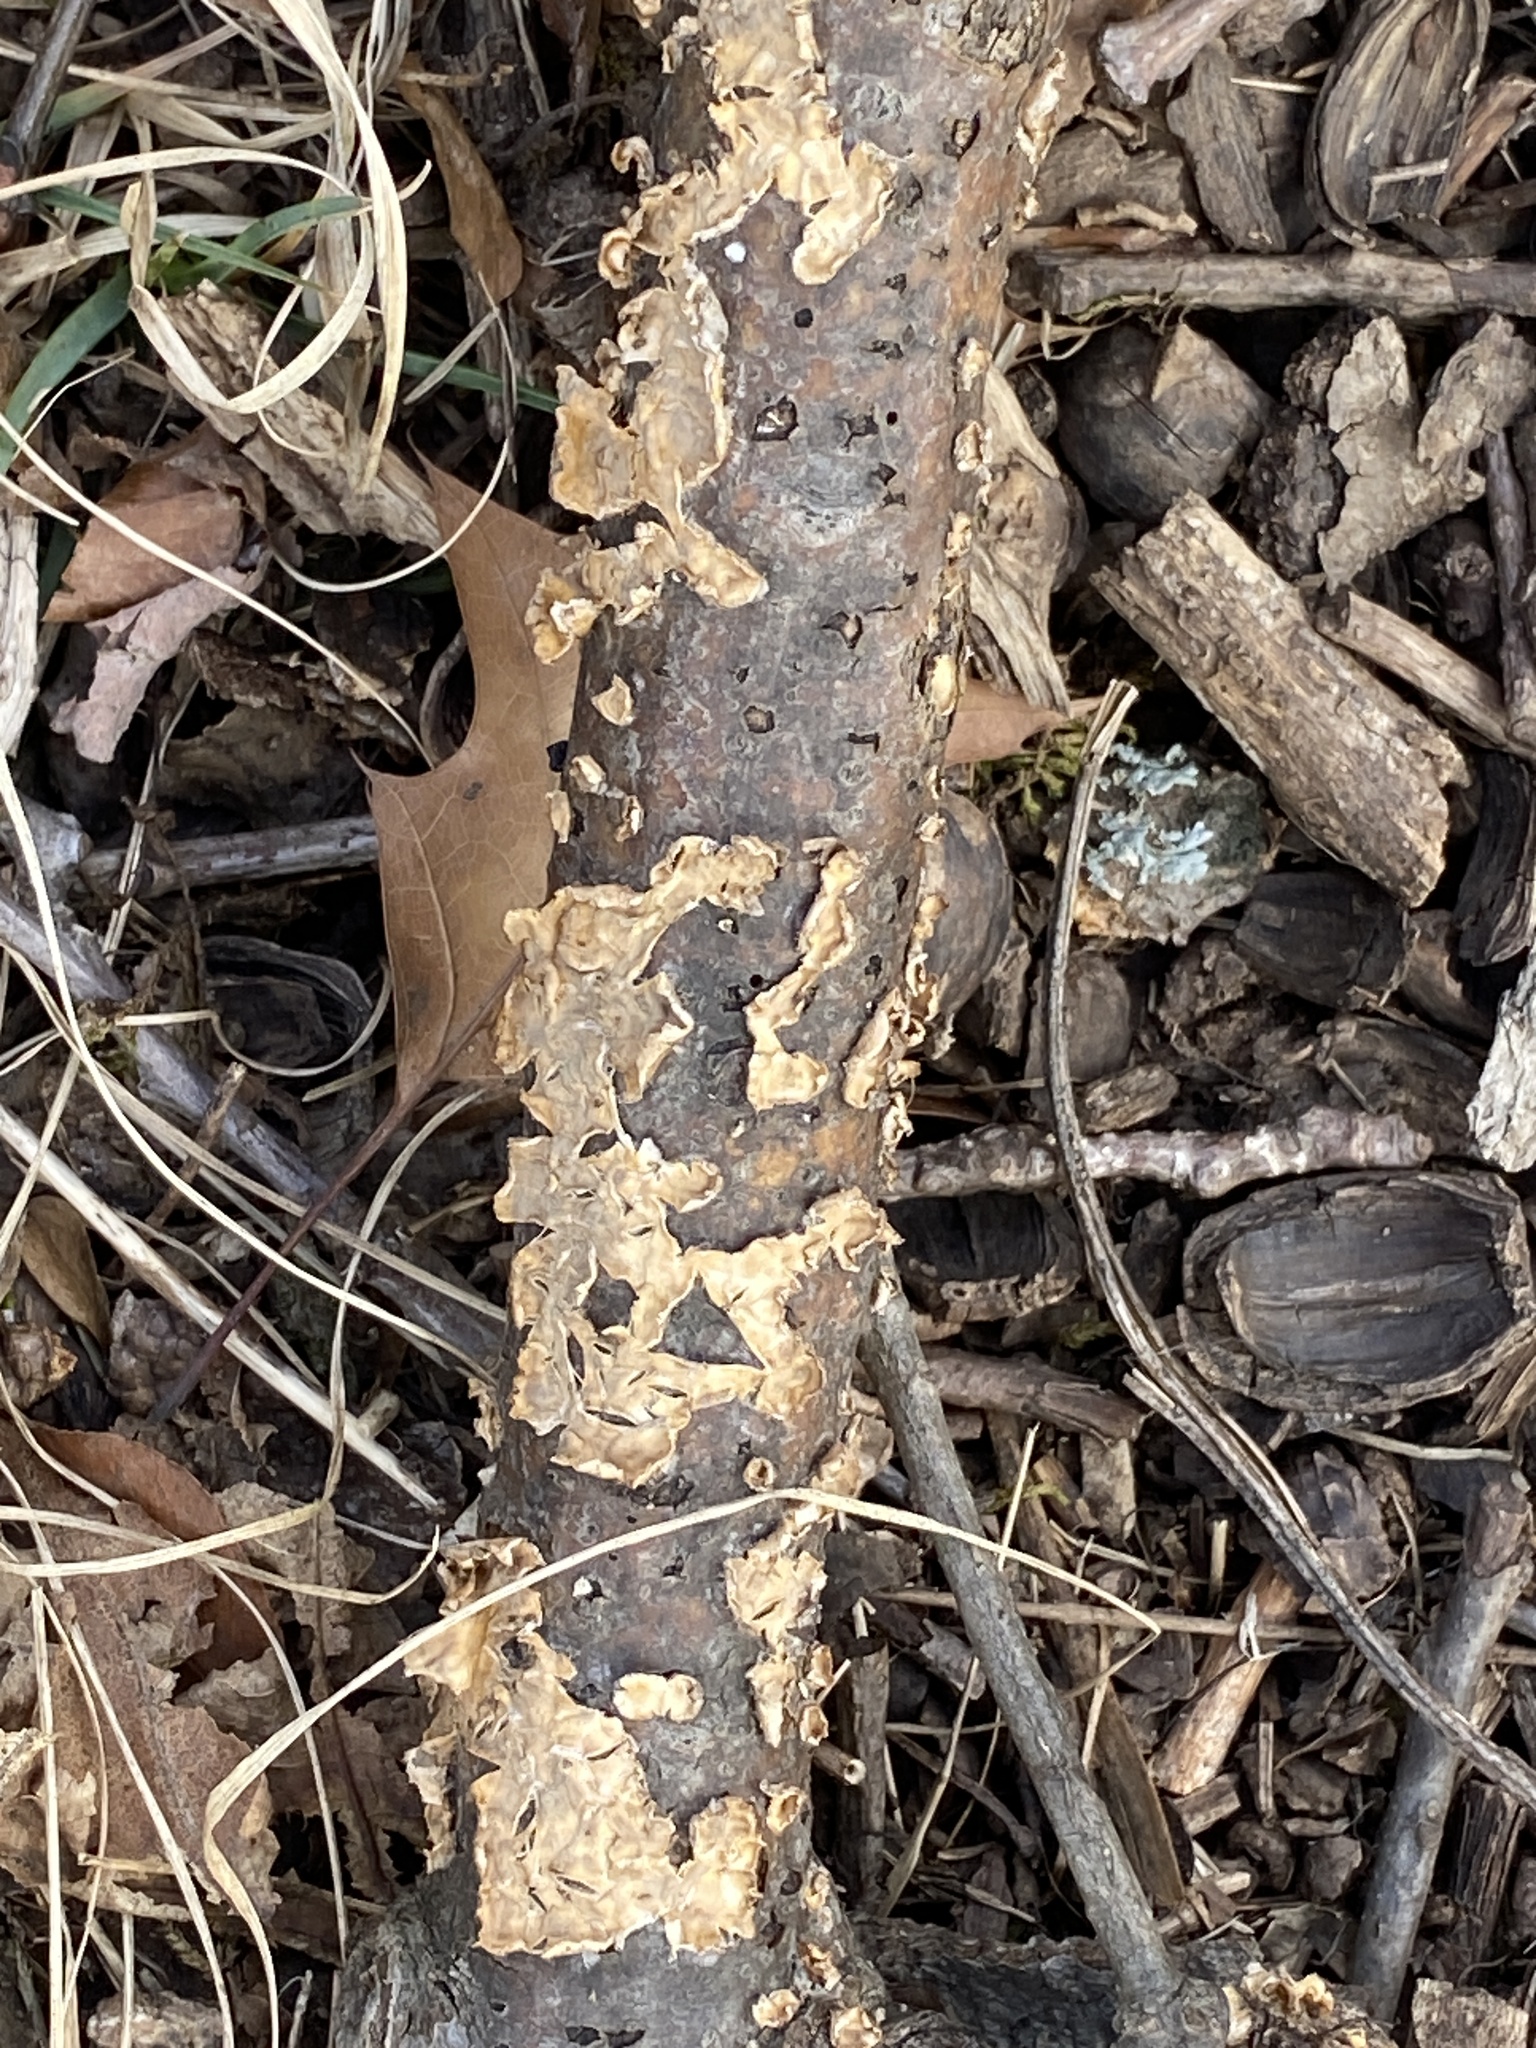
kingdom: Fungi
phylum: Basidiomycota
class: Agaricomycetes
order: Russulales
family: Stereaceae
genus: Stereum
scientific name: Stereum complicatum
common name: Crowded parchment
